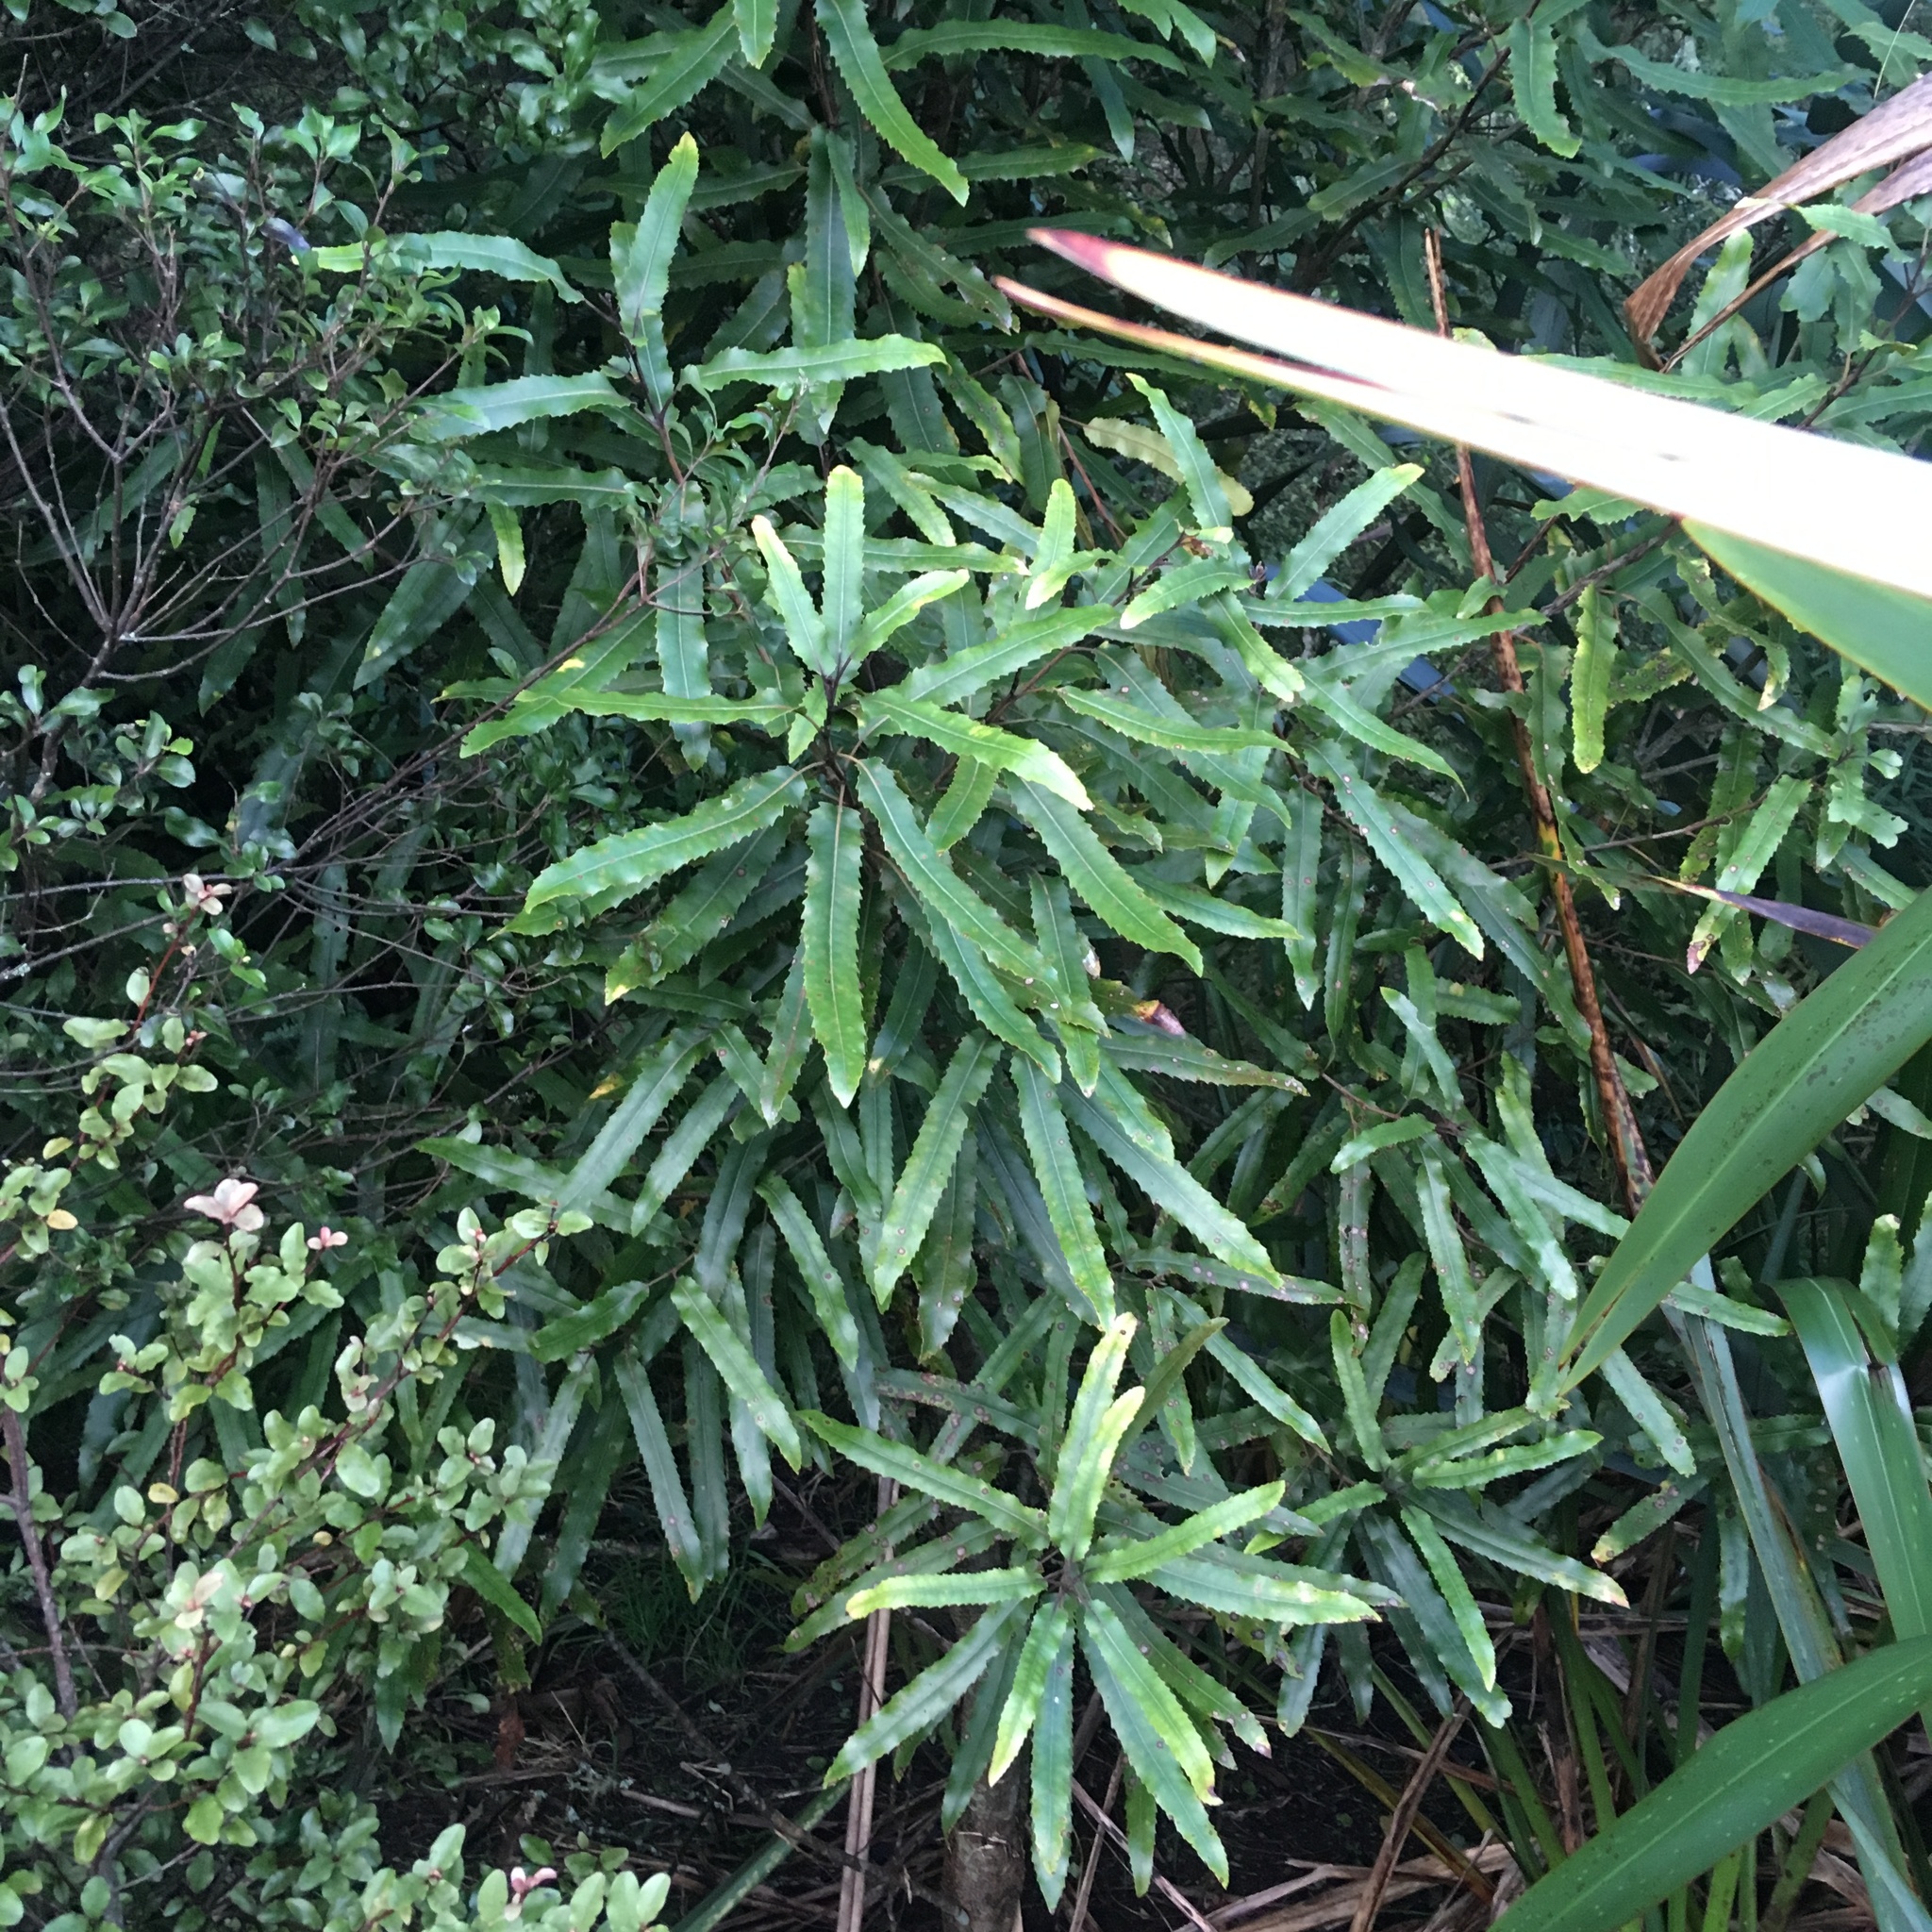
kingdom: Plantae
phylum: Tracheophyta
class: Magnoliopsida
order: Proteales
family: Proteaceae
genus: Knightia
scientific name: Knightia excelsa
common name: New zealand-honeysuckle
